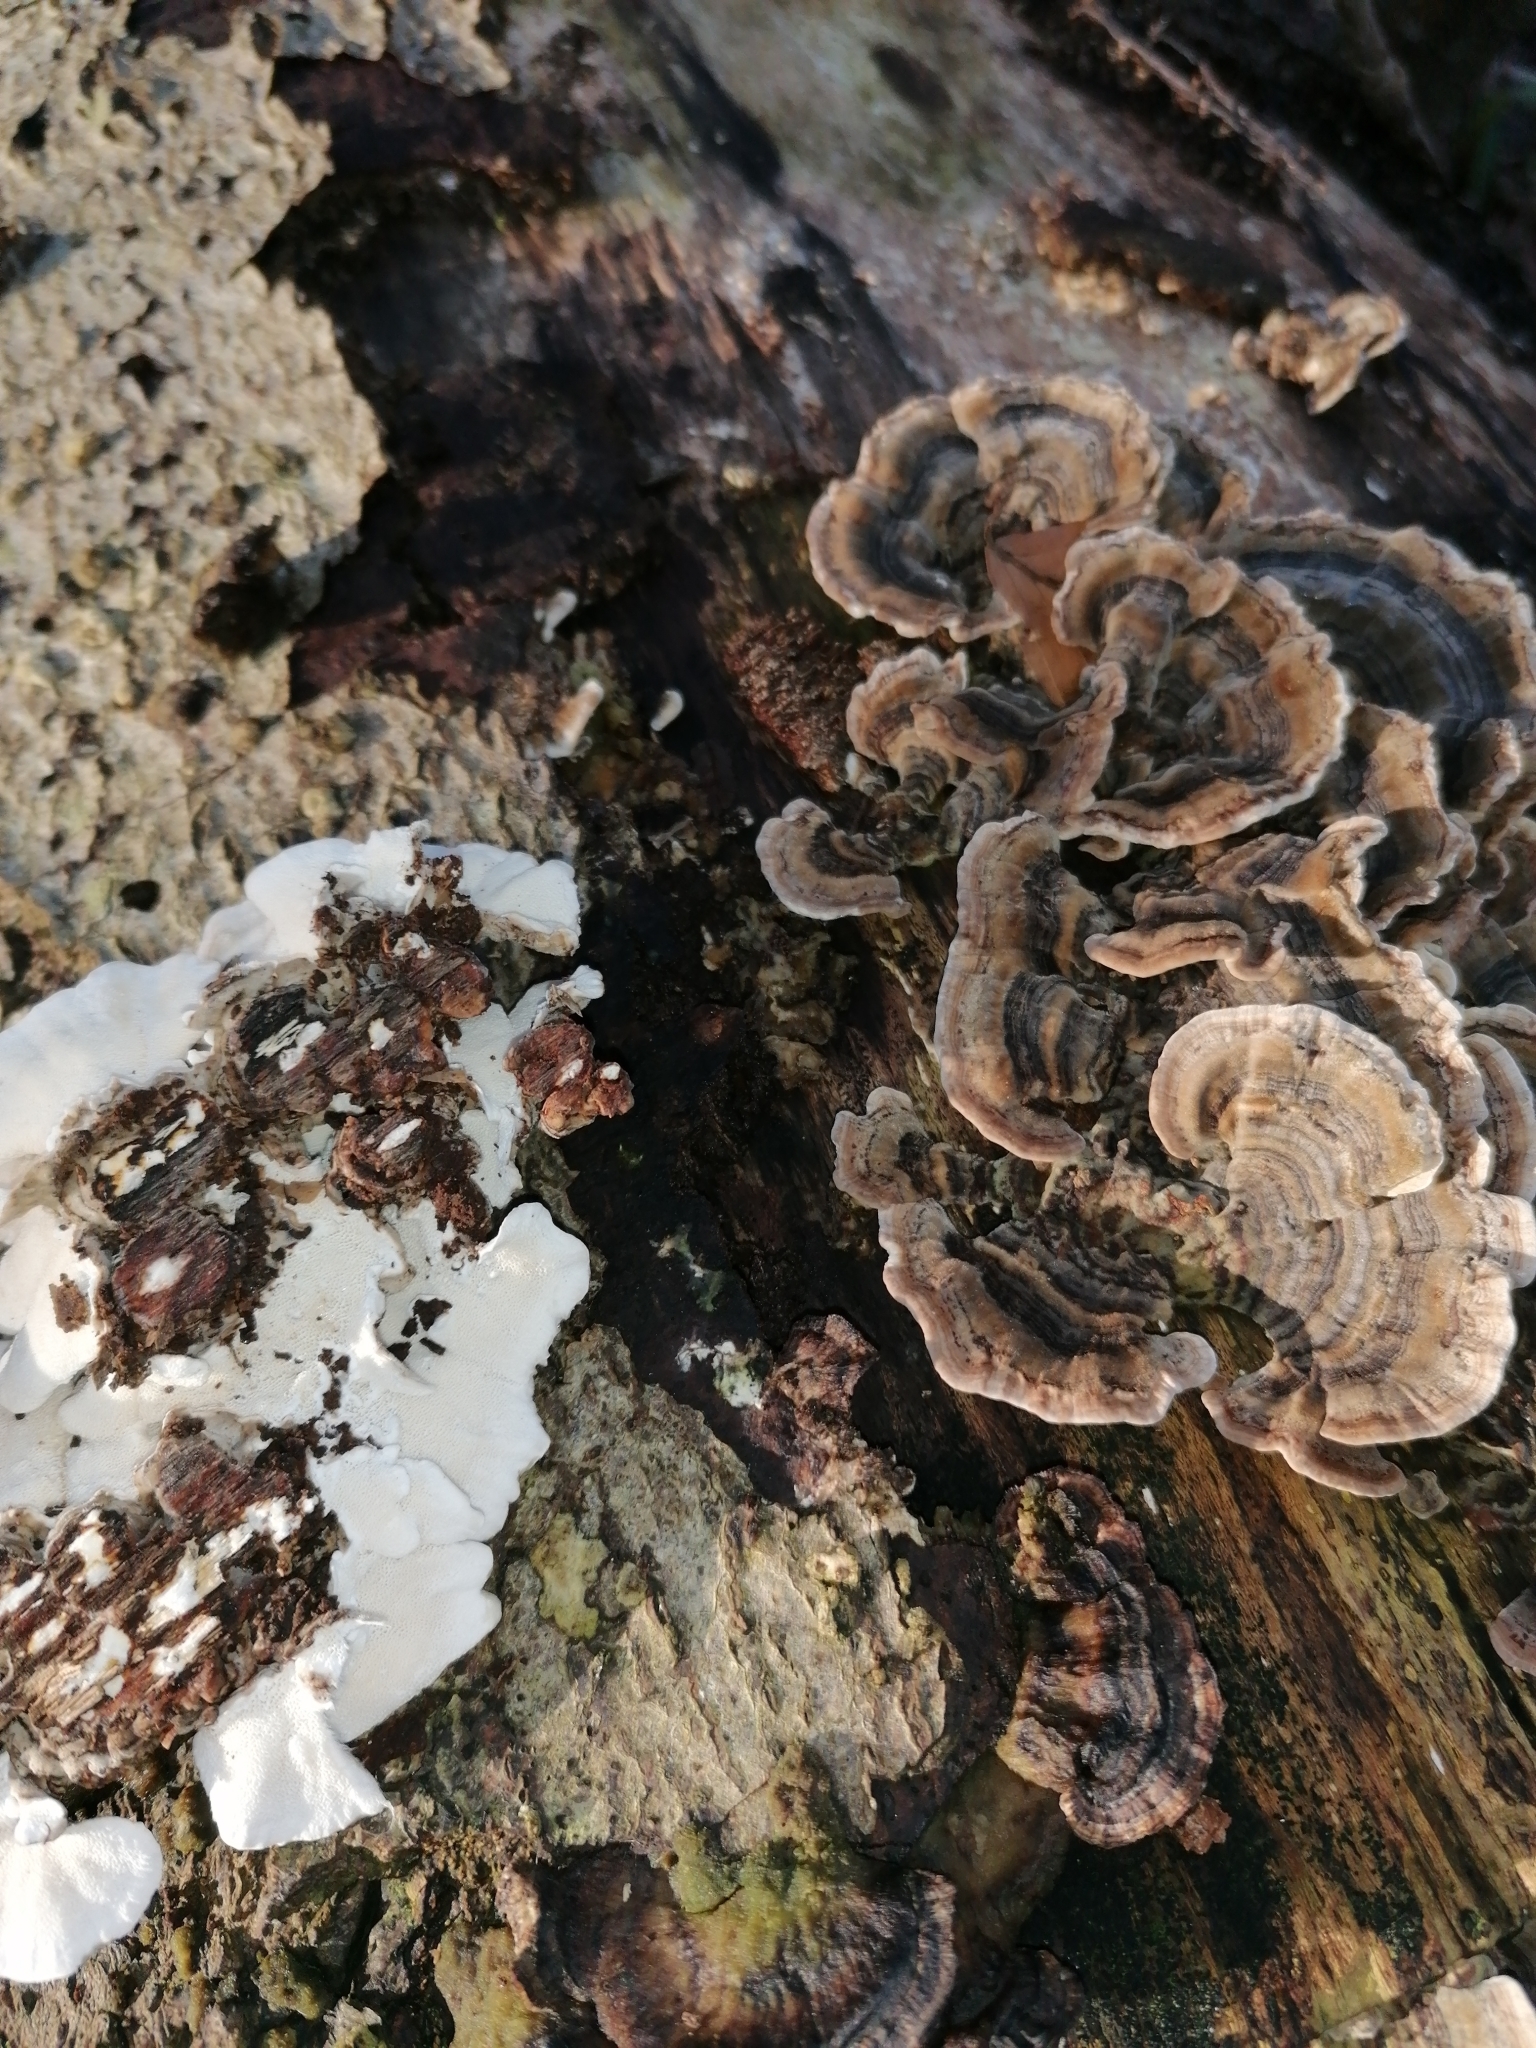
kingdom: Fungi
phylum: Basidiomycota
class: Agaricomycetes
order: Polyporales
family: Polyporaceae
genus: Trametes
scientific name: Trametes versicolor
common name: Turkeytail
